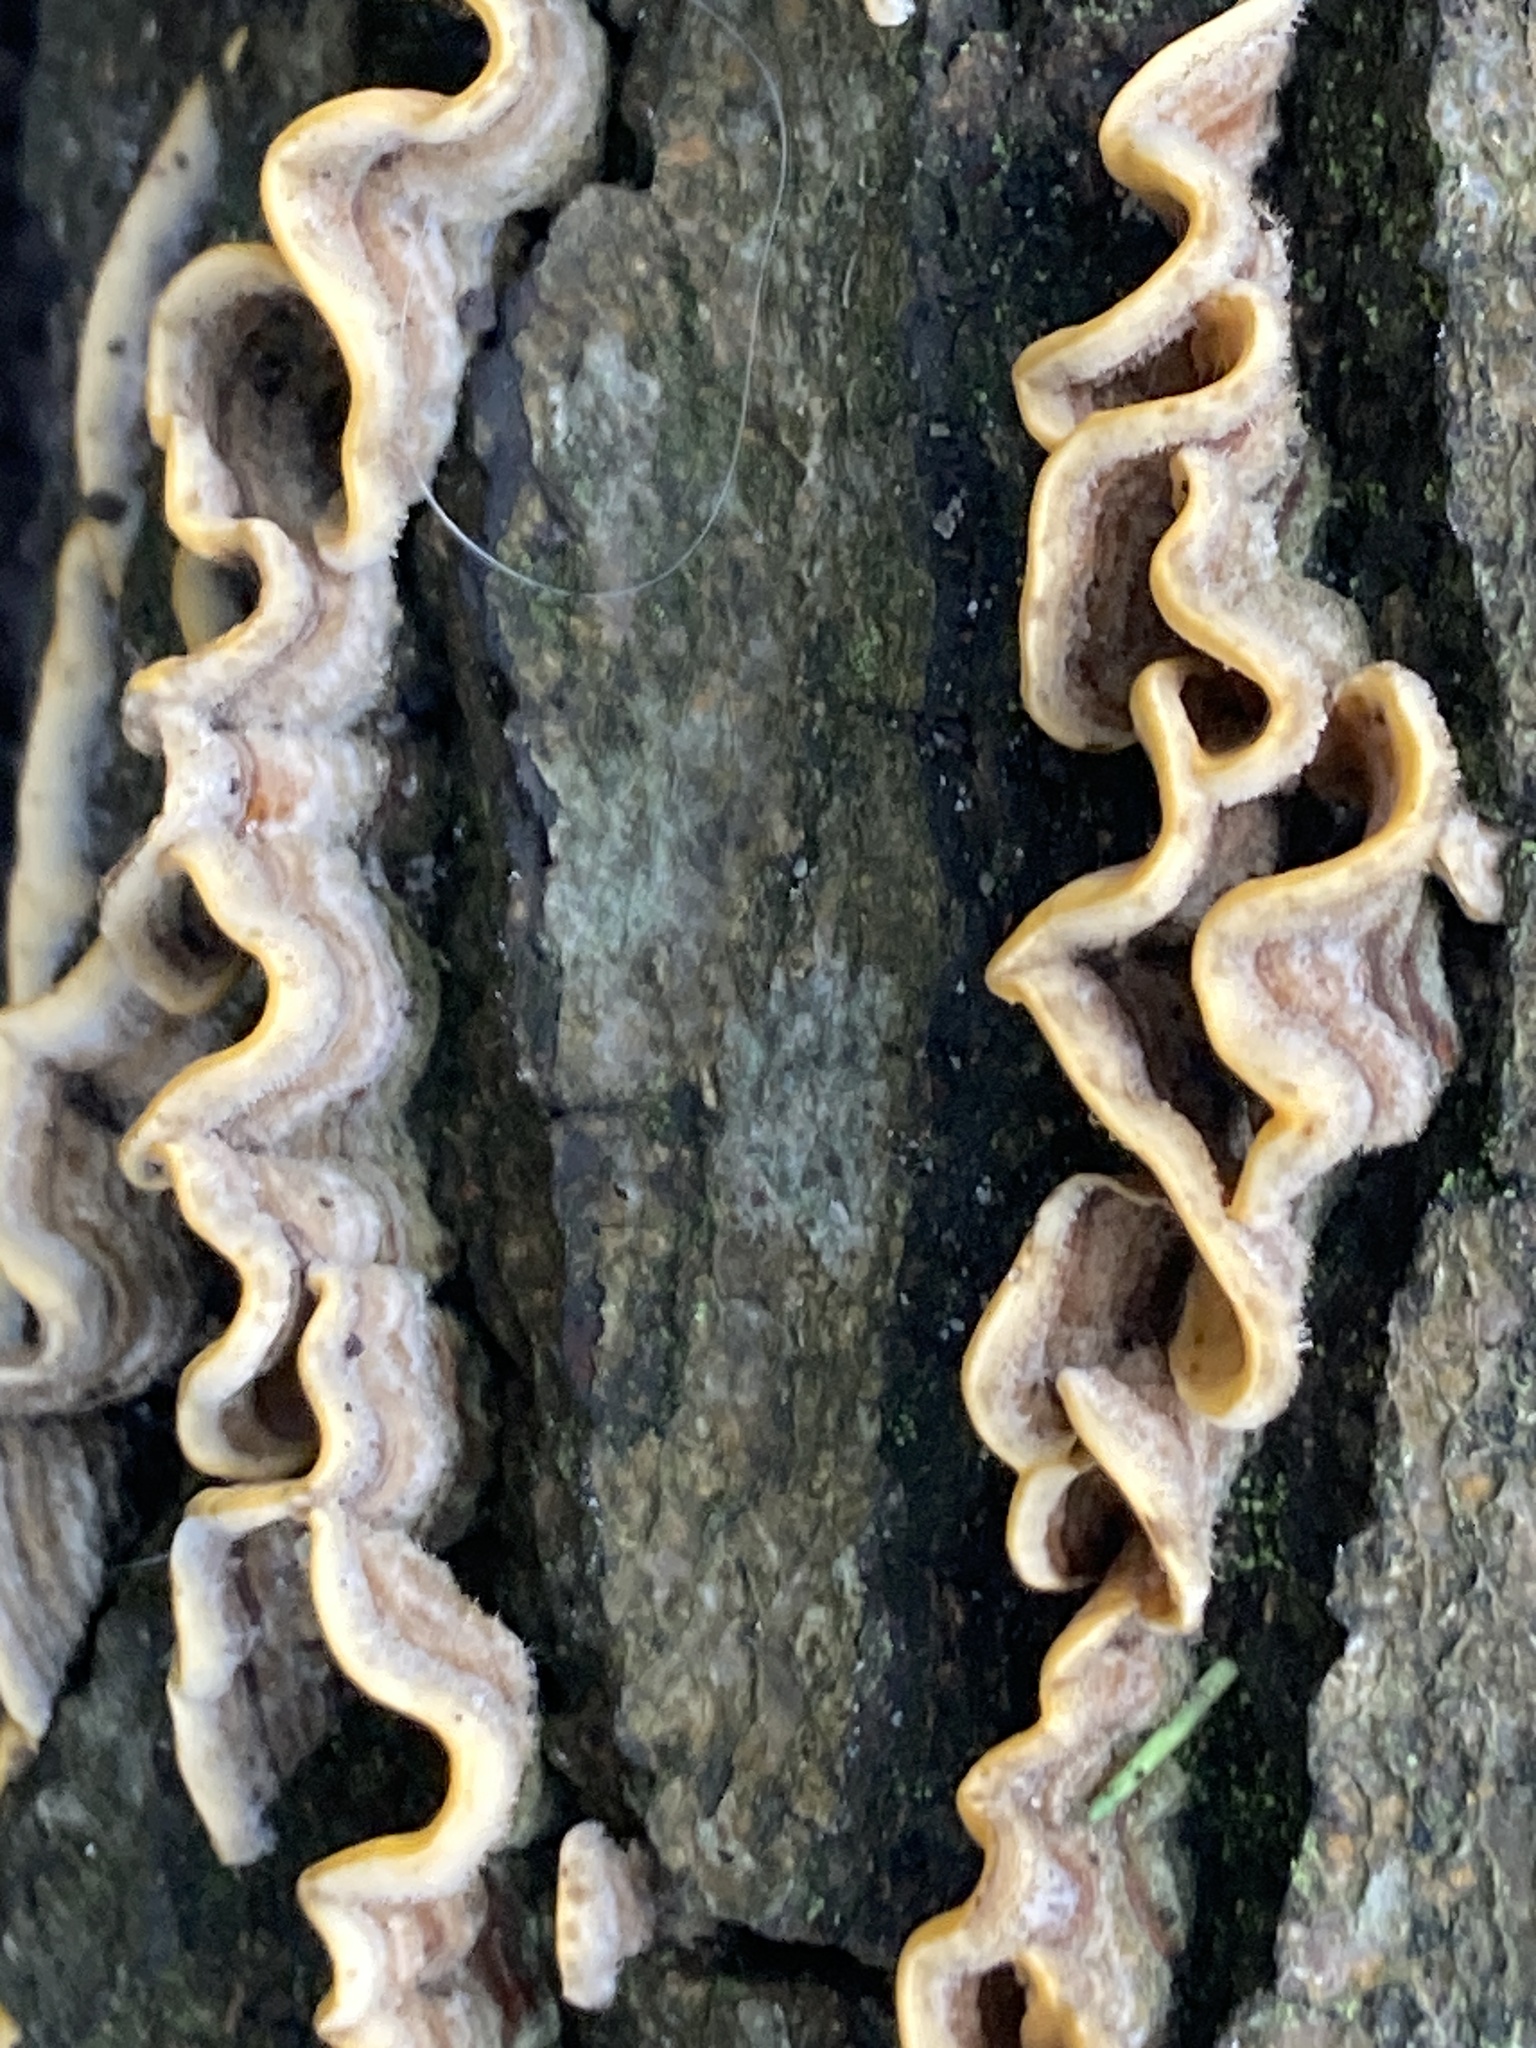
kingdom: Fungi
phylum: Basidiomycota
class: Agaricomycetes
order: Russulales
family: Stereaceae
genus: Stereum
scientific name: Stereum hirsutum
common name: Hairy curtain crust
